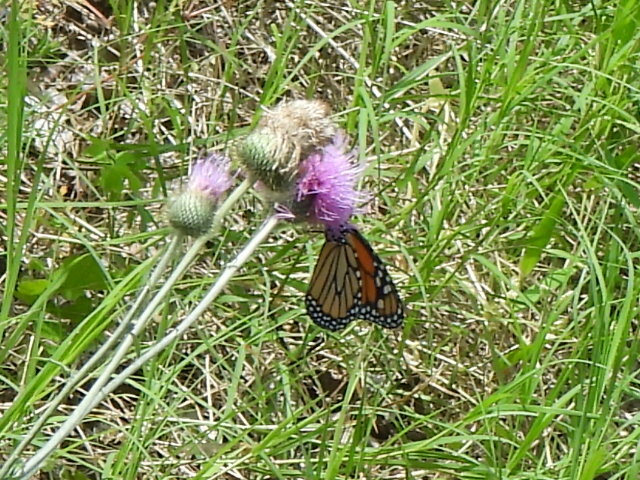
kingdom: Animalia
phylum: Arthropoda
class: Insecta
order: Lepidoptera
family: Nymphalidae
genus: Danaus
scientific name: Danaus plexippus
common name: Monarch
